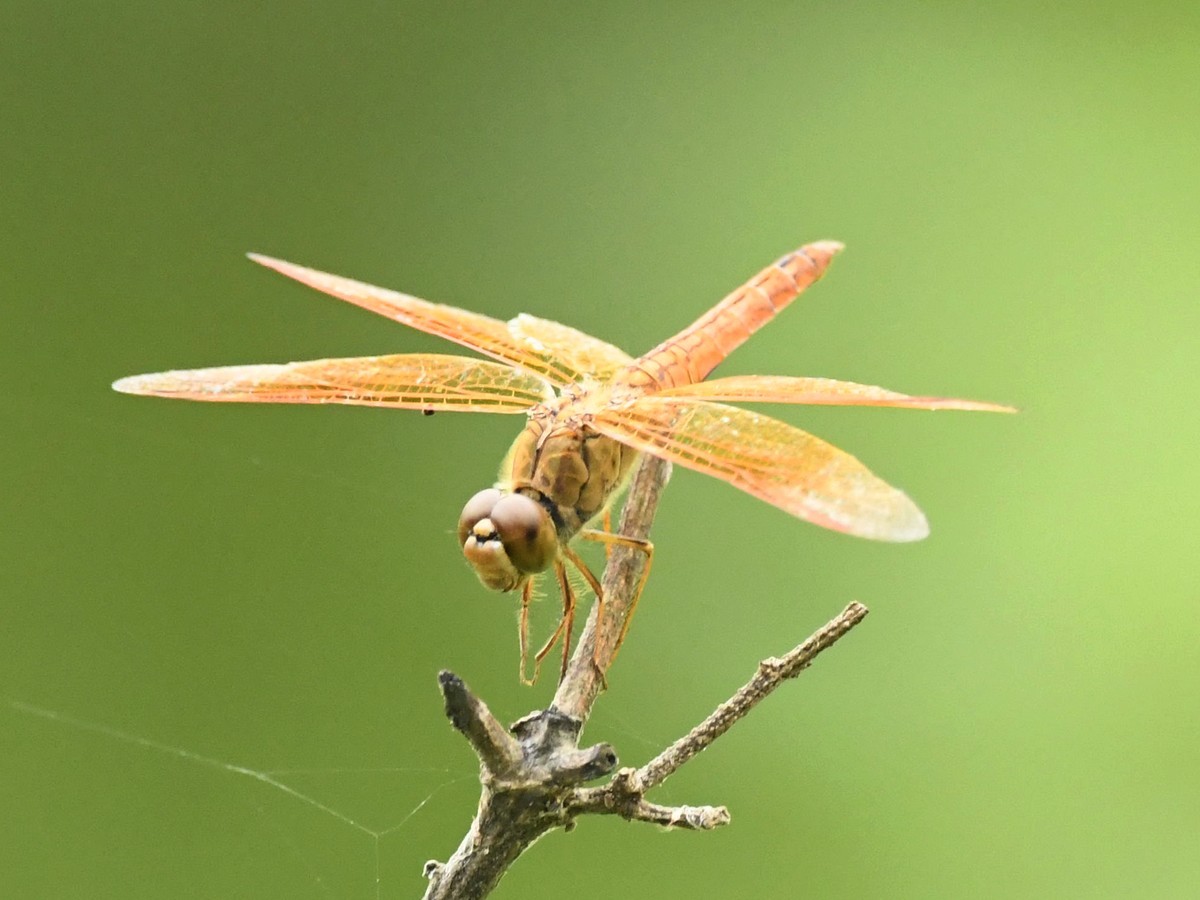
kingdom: Animalia
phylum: Arthropoda
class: Insecta
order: Odonata
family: Libellulidae
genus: Brachythemis
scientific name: Brachythemis contaminata
